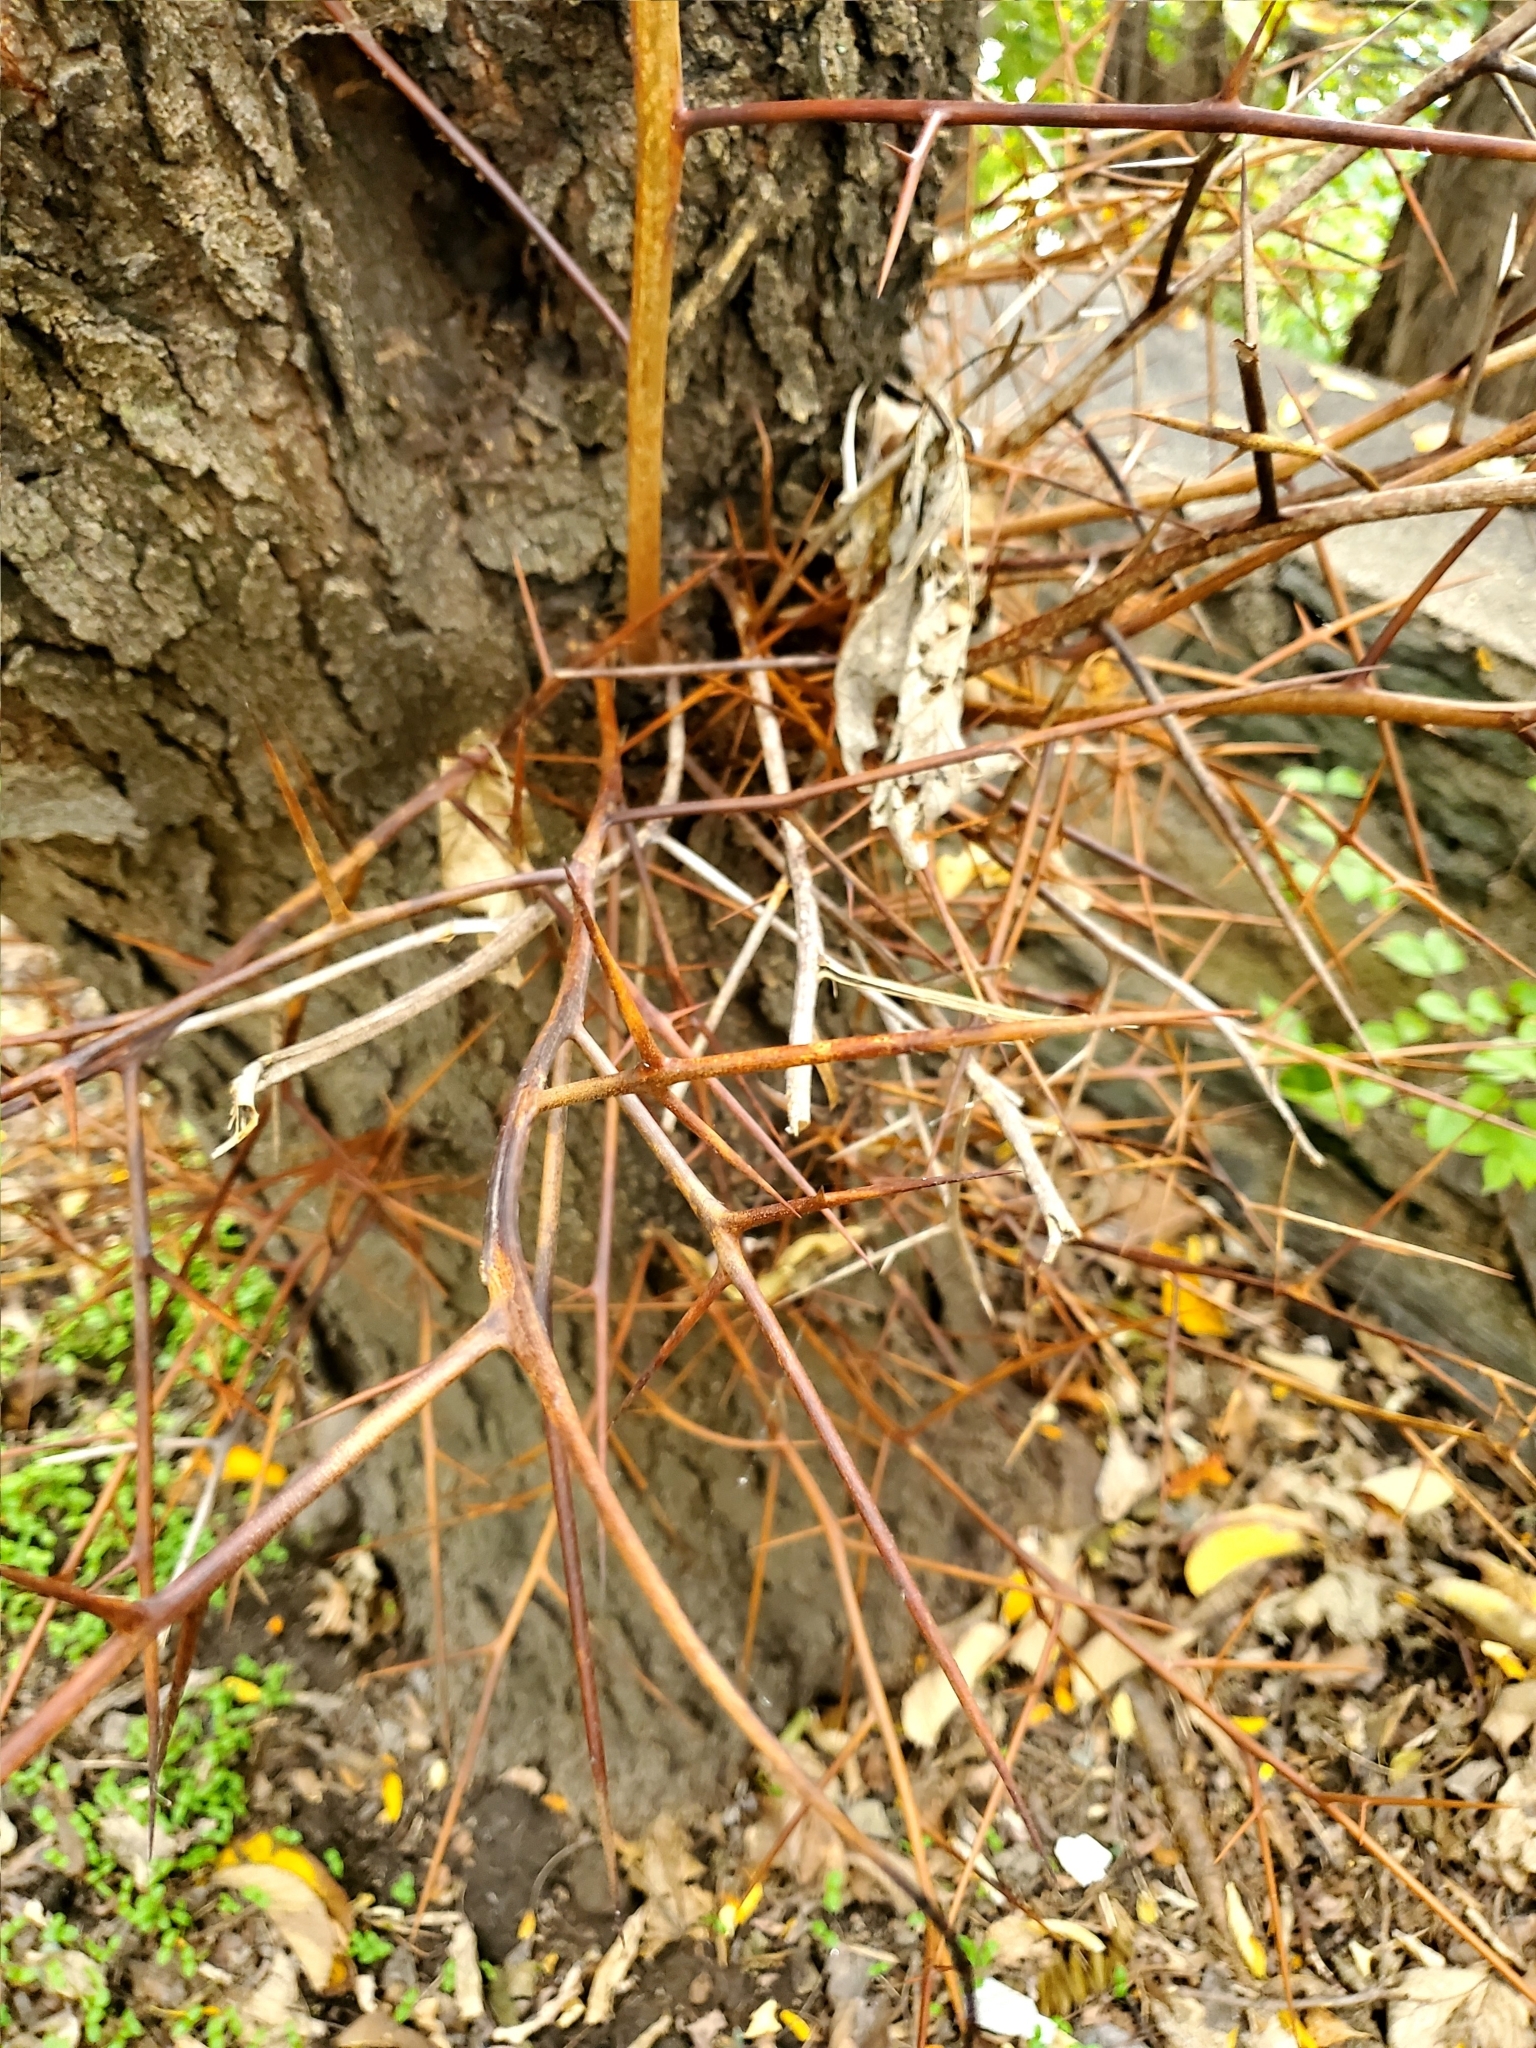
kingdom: Plantae
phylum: Tracheophyta
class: Magnoliopsida
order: Fabales
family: Fabaceae
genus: Gleditsia
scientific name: Gleditsia triacanthos
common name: Common honeylocust
